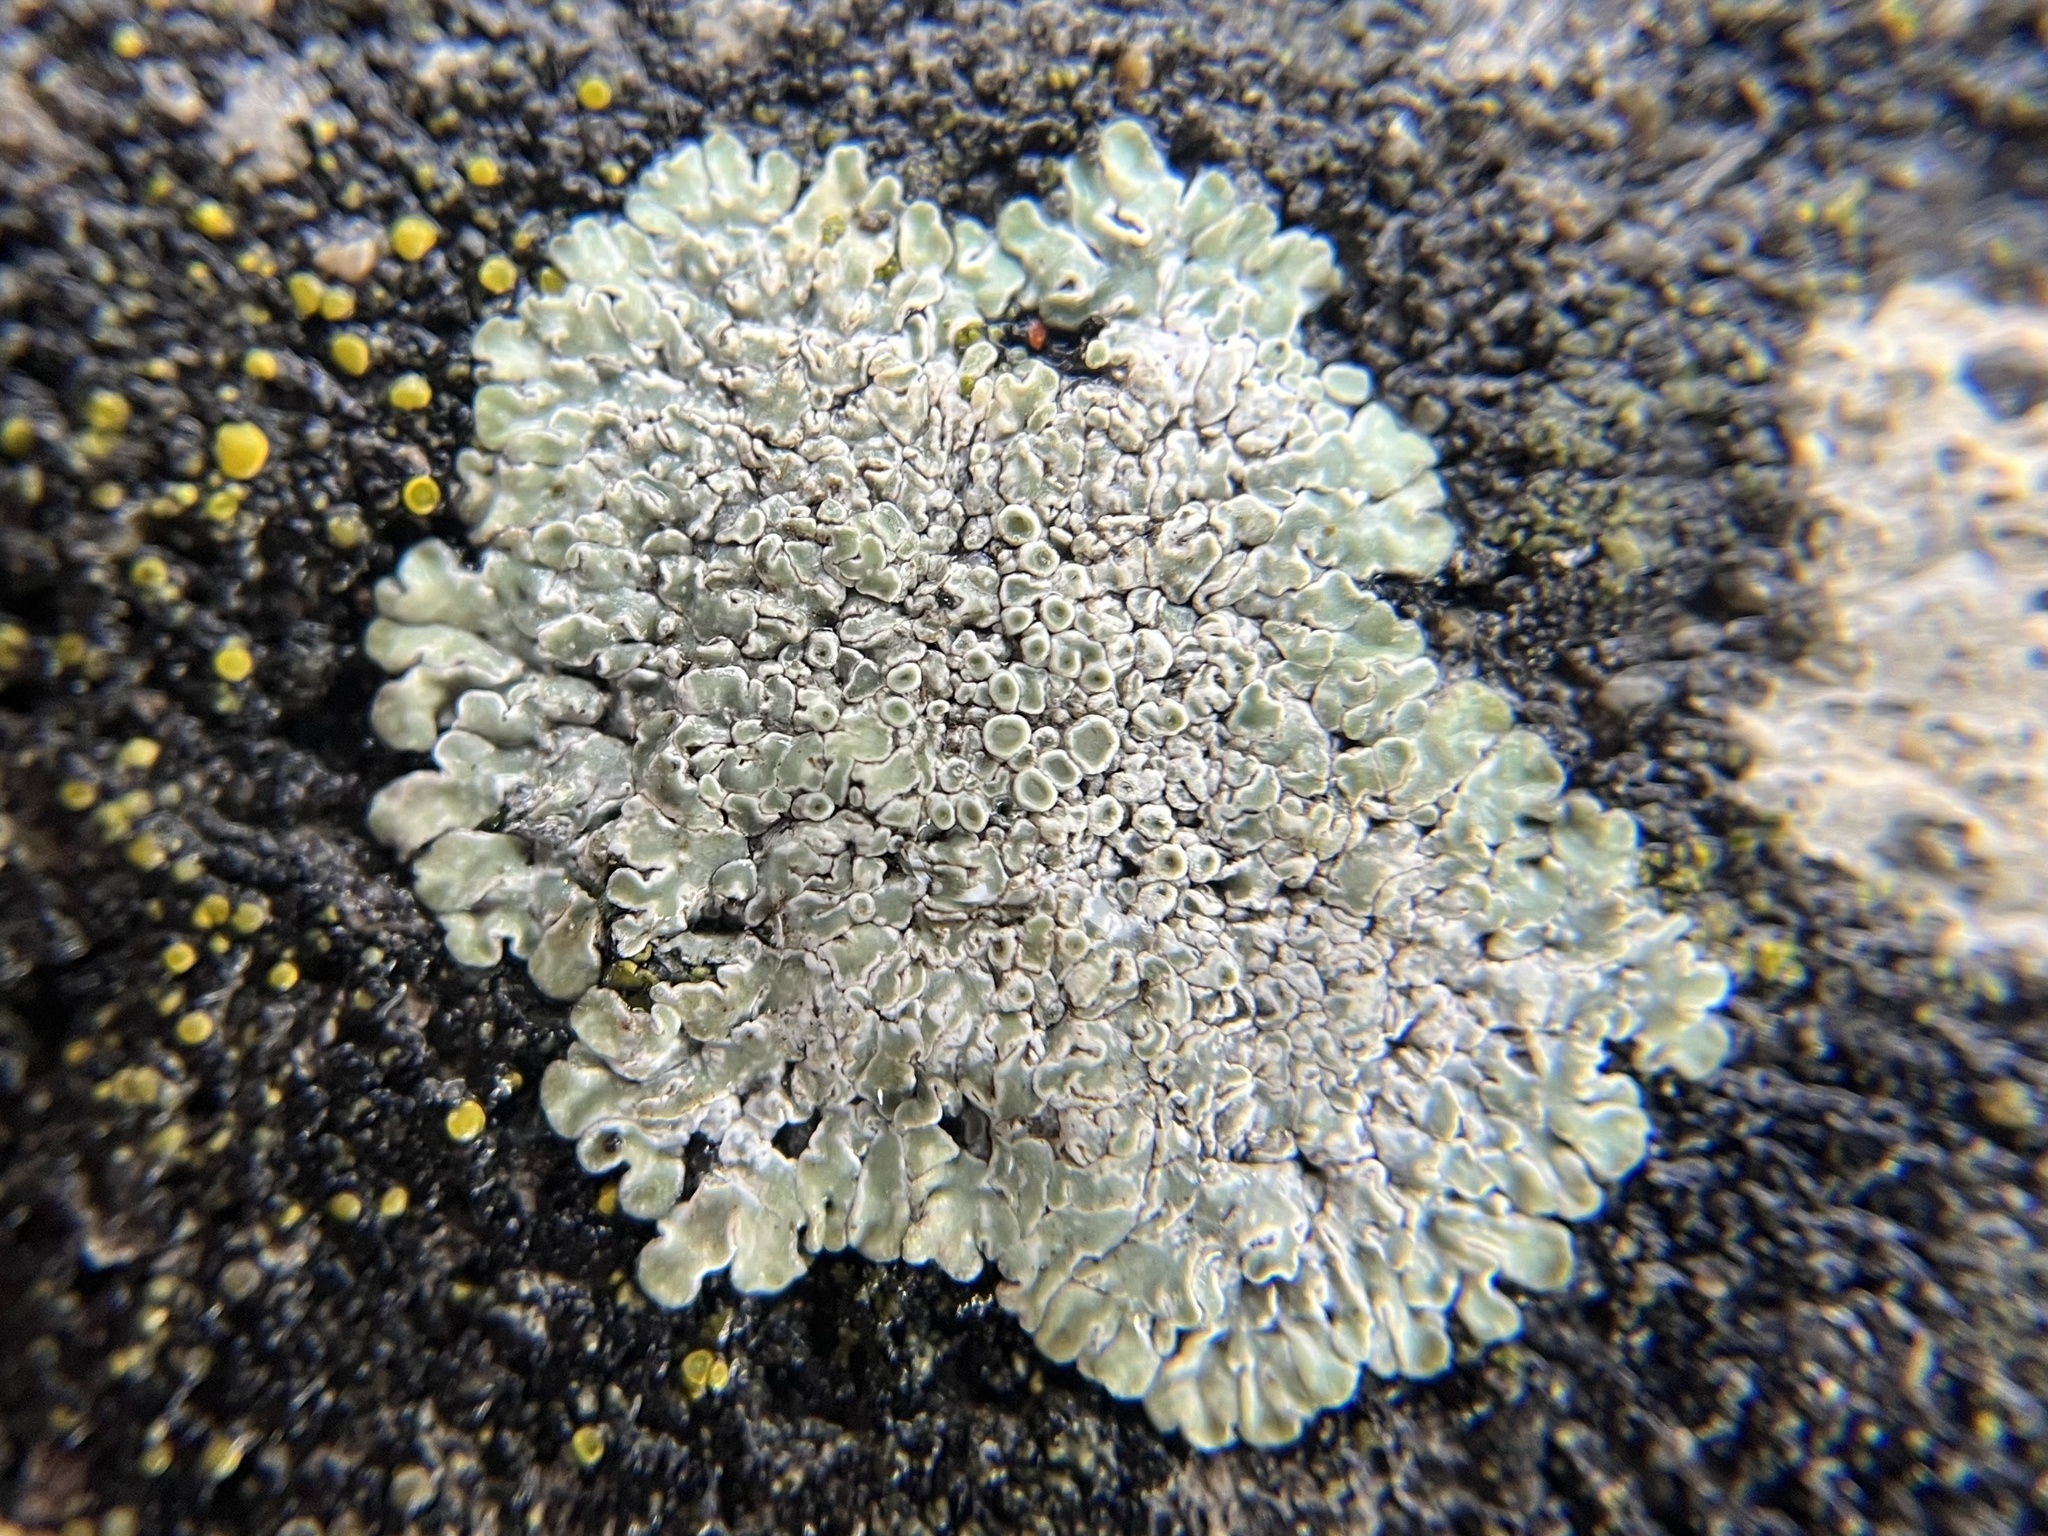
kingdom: Fungi
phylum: Ascomycota
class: Lecanoromycetes
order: Lecanorales
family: Lecanoraceae
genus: Protoparmeliopsis
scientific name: Protoparmeliopsis muralis
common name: Stonewall rim lichen
